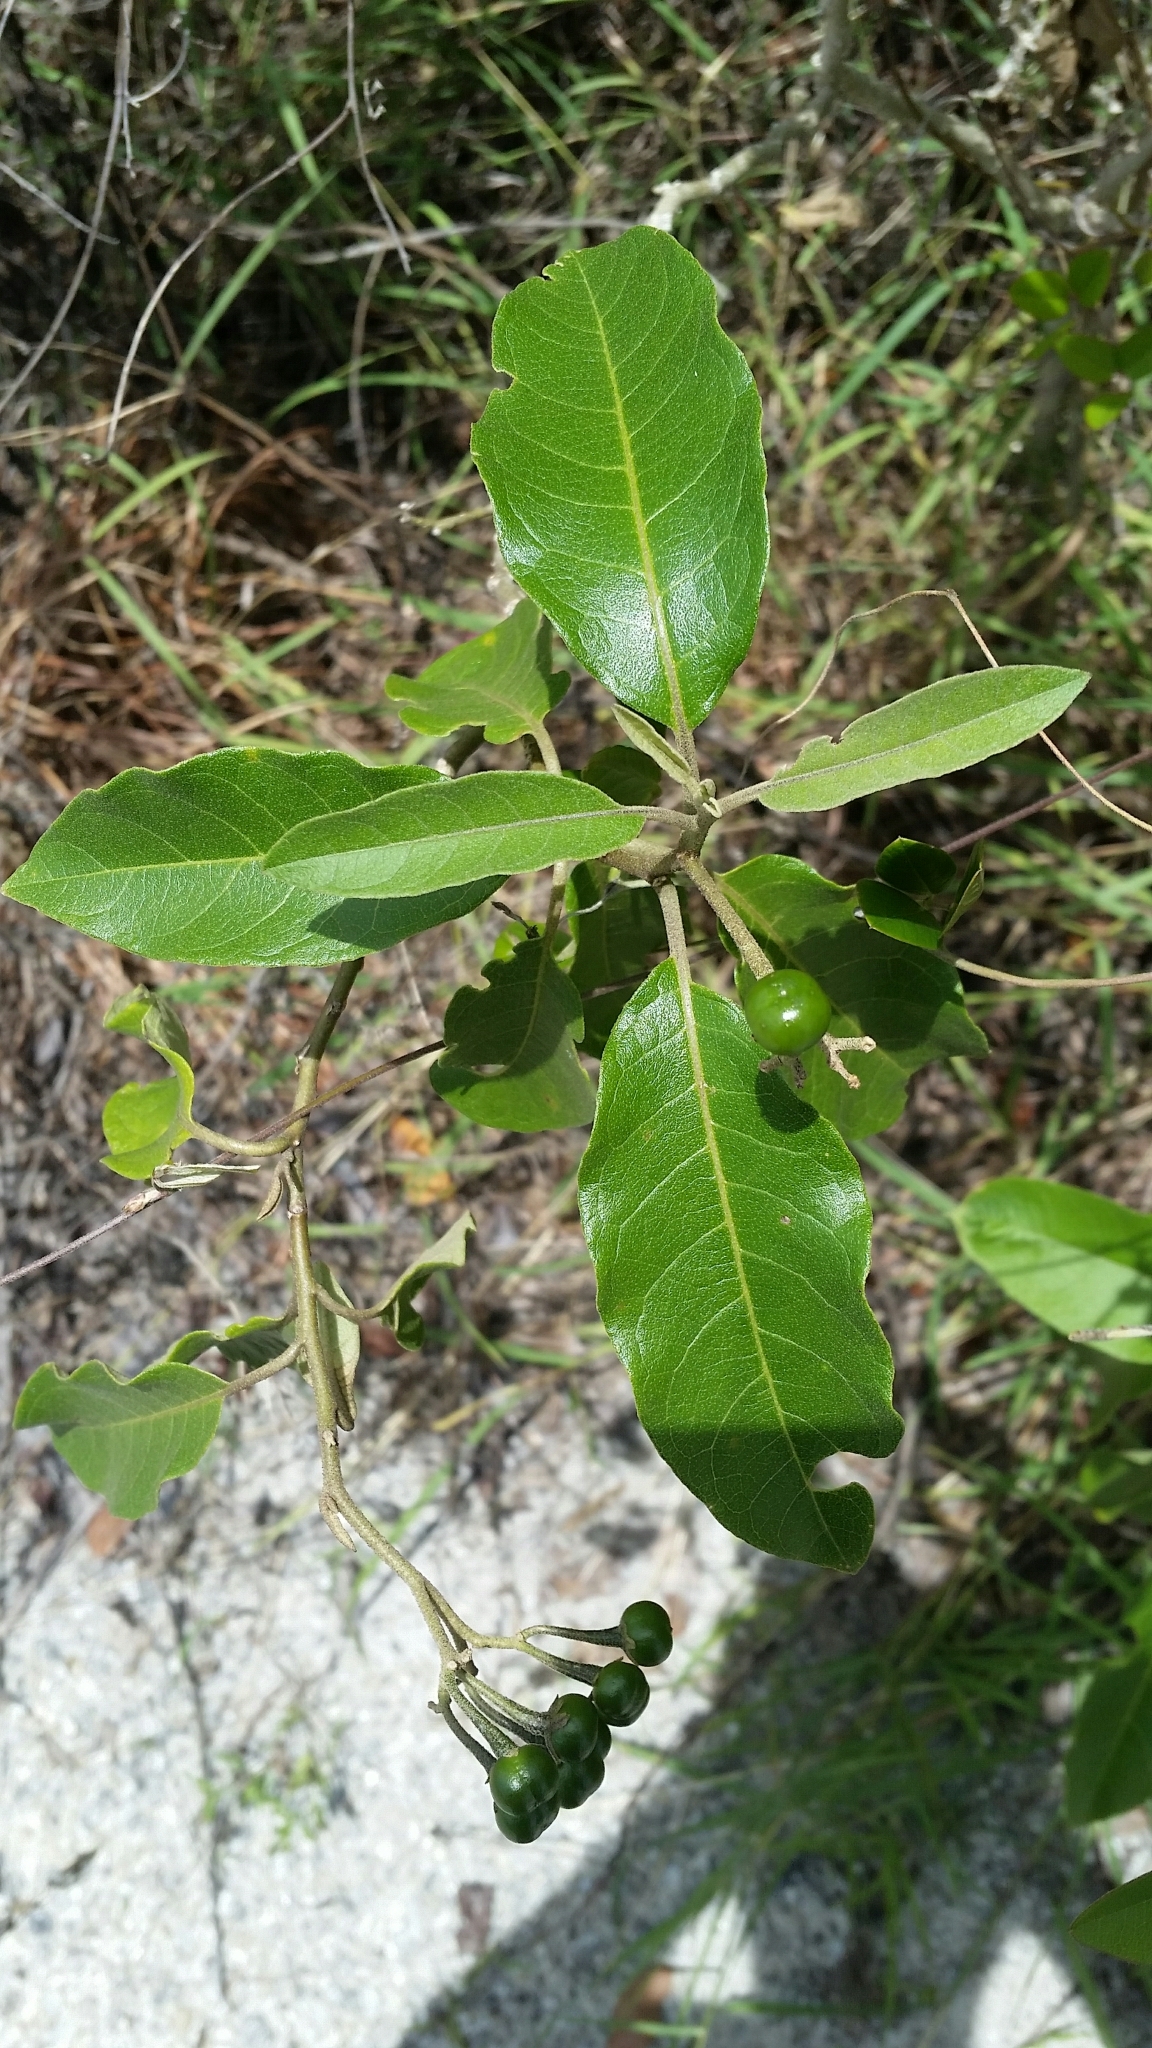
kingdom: Plantae
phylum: Tracheophyta
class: Magnoliopsida
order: Solanales
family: Solanaceae
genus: Solanum
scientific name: Solanum donianum
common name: Mullein nightshade
